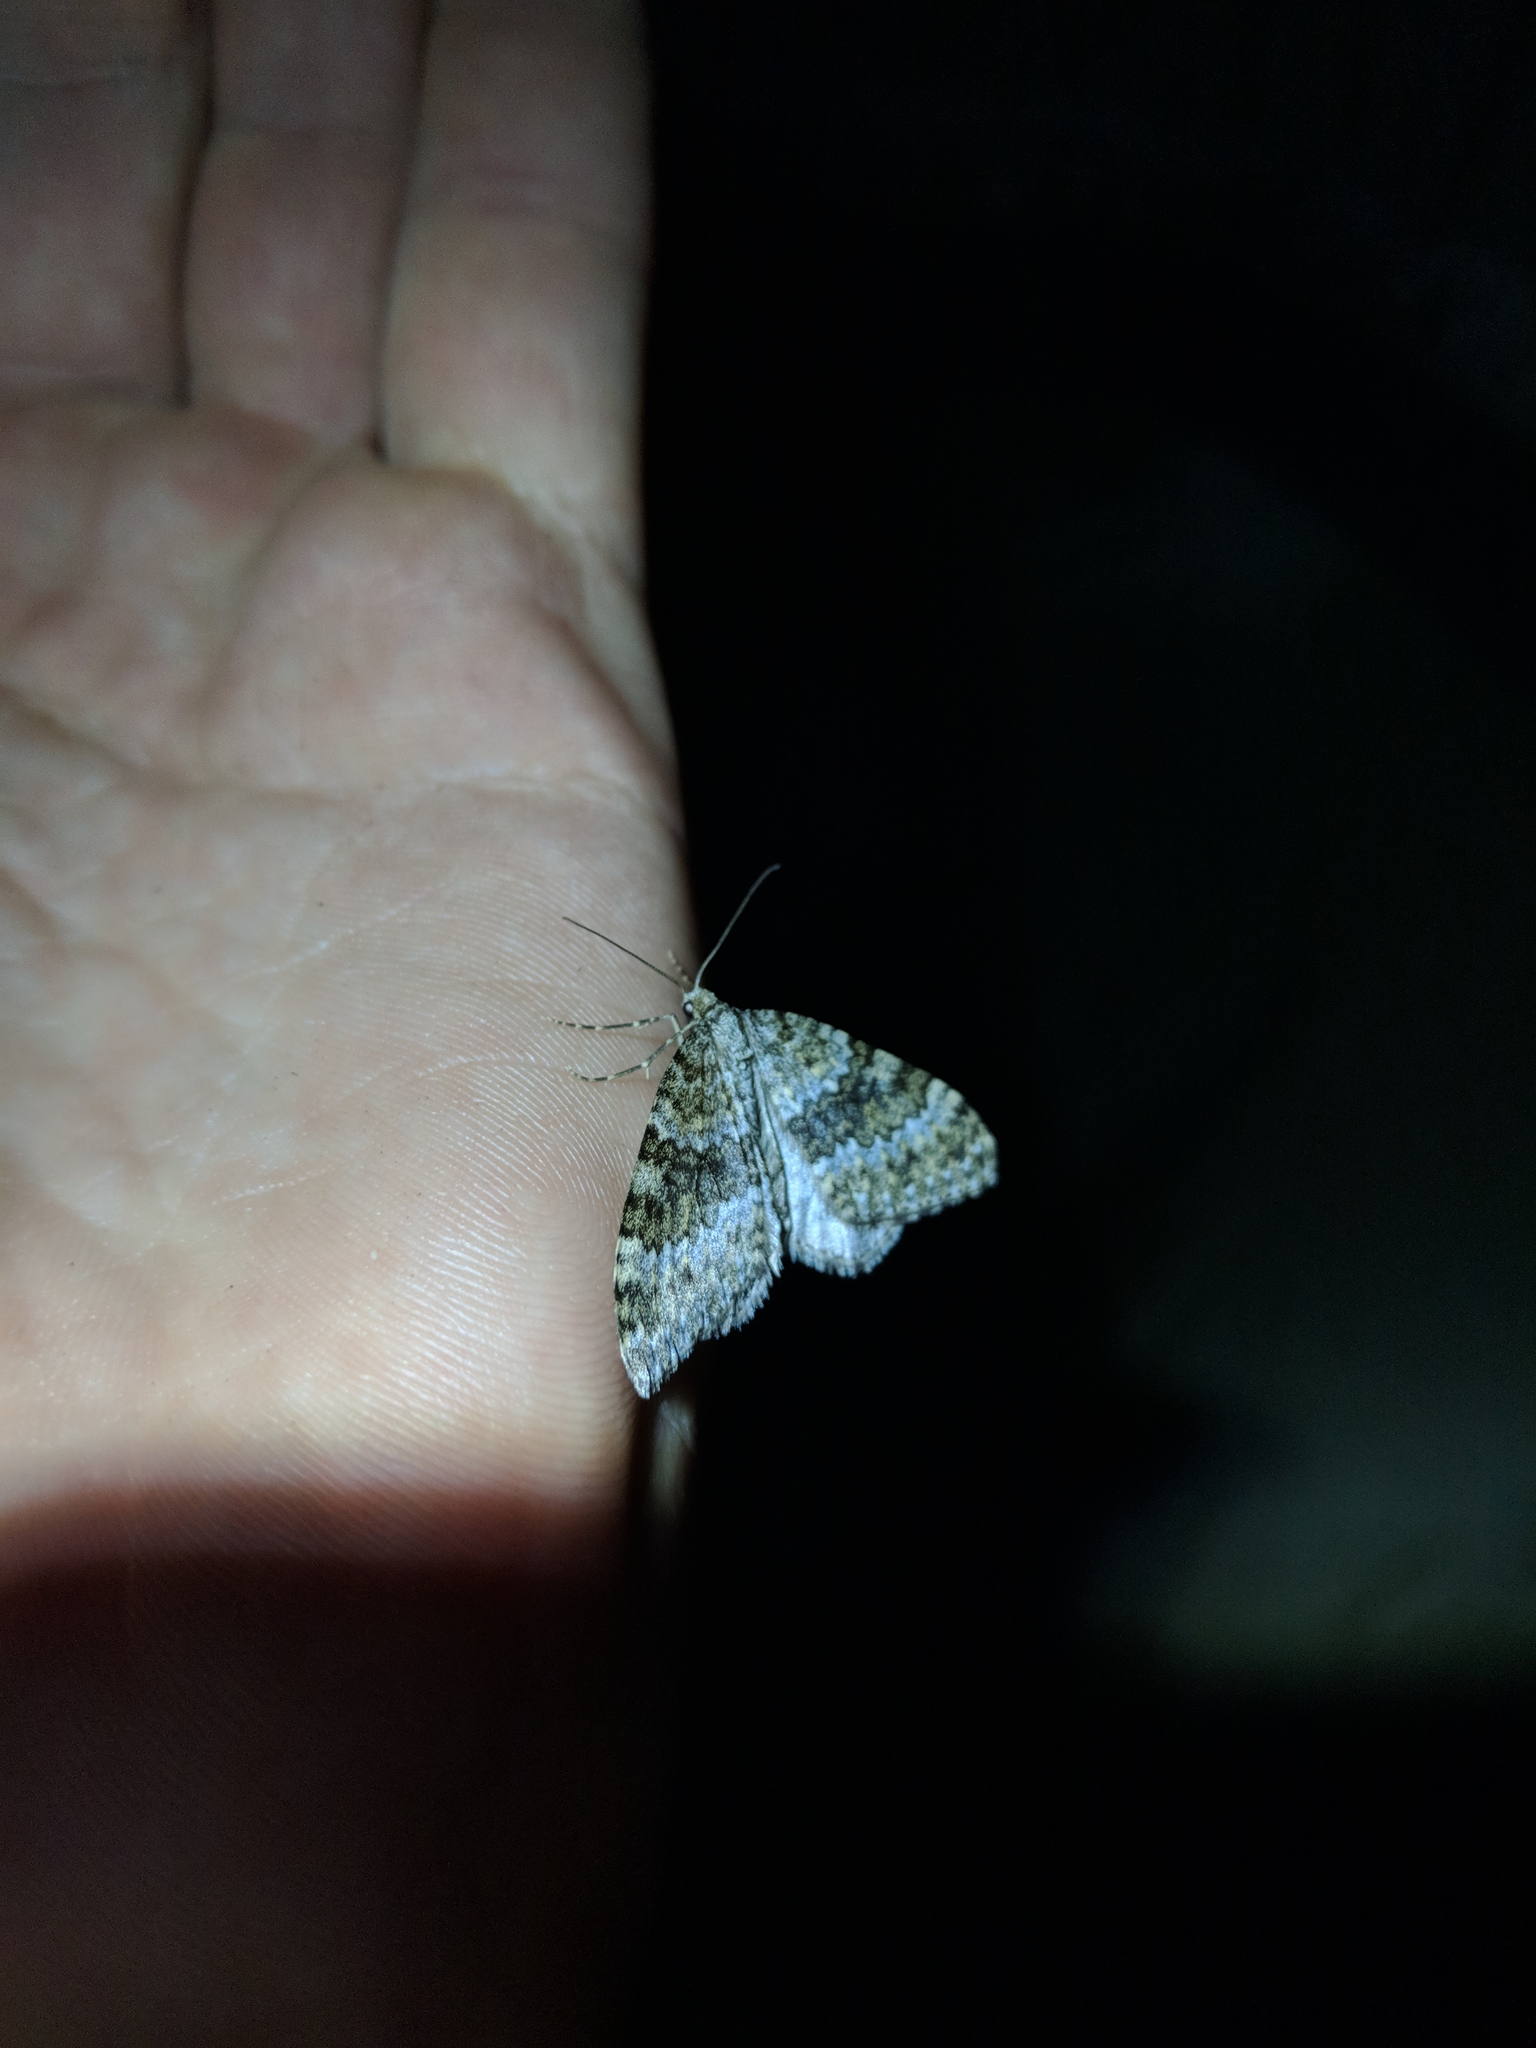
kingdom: Animalia
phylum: Arthropoda
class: Insecta
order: Lepidoptera
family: Geometridae
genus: Entephria
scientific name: Entephria caesiata
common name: Grey mountain moth
